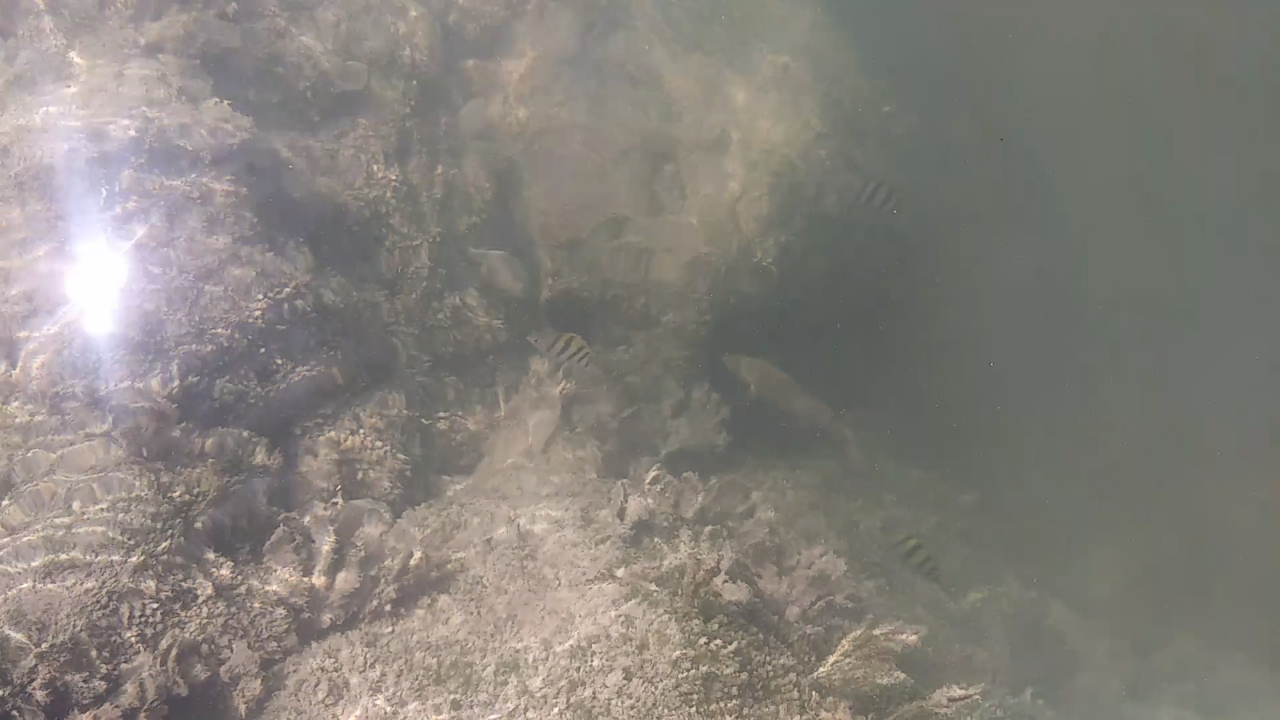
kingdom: Animalia
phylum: Chordata
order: Perciformes
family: Pomacentridae
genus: Abudefduf
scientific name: Abudefduf saxatilis
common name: Sergeant major
